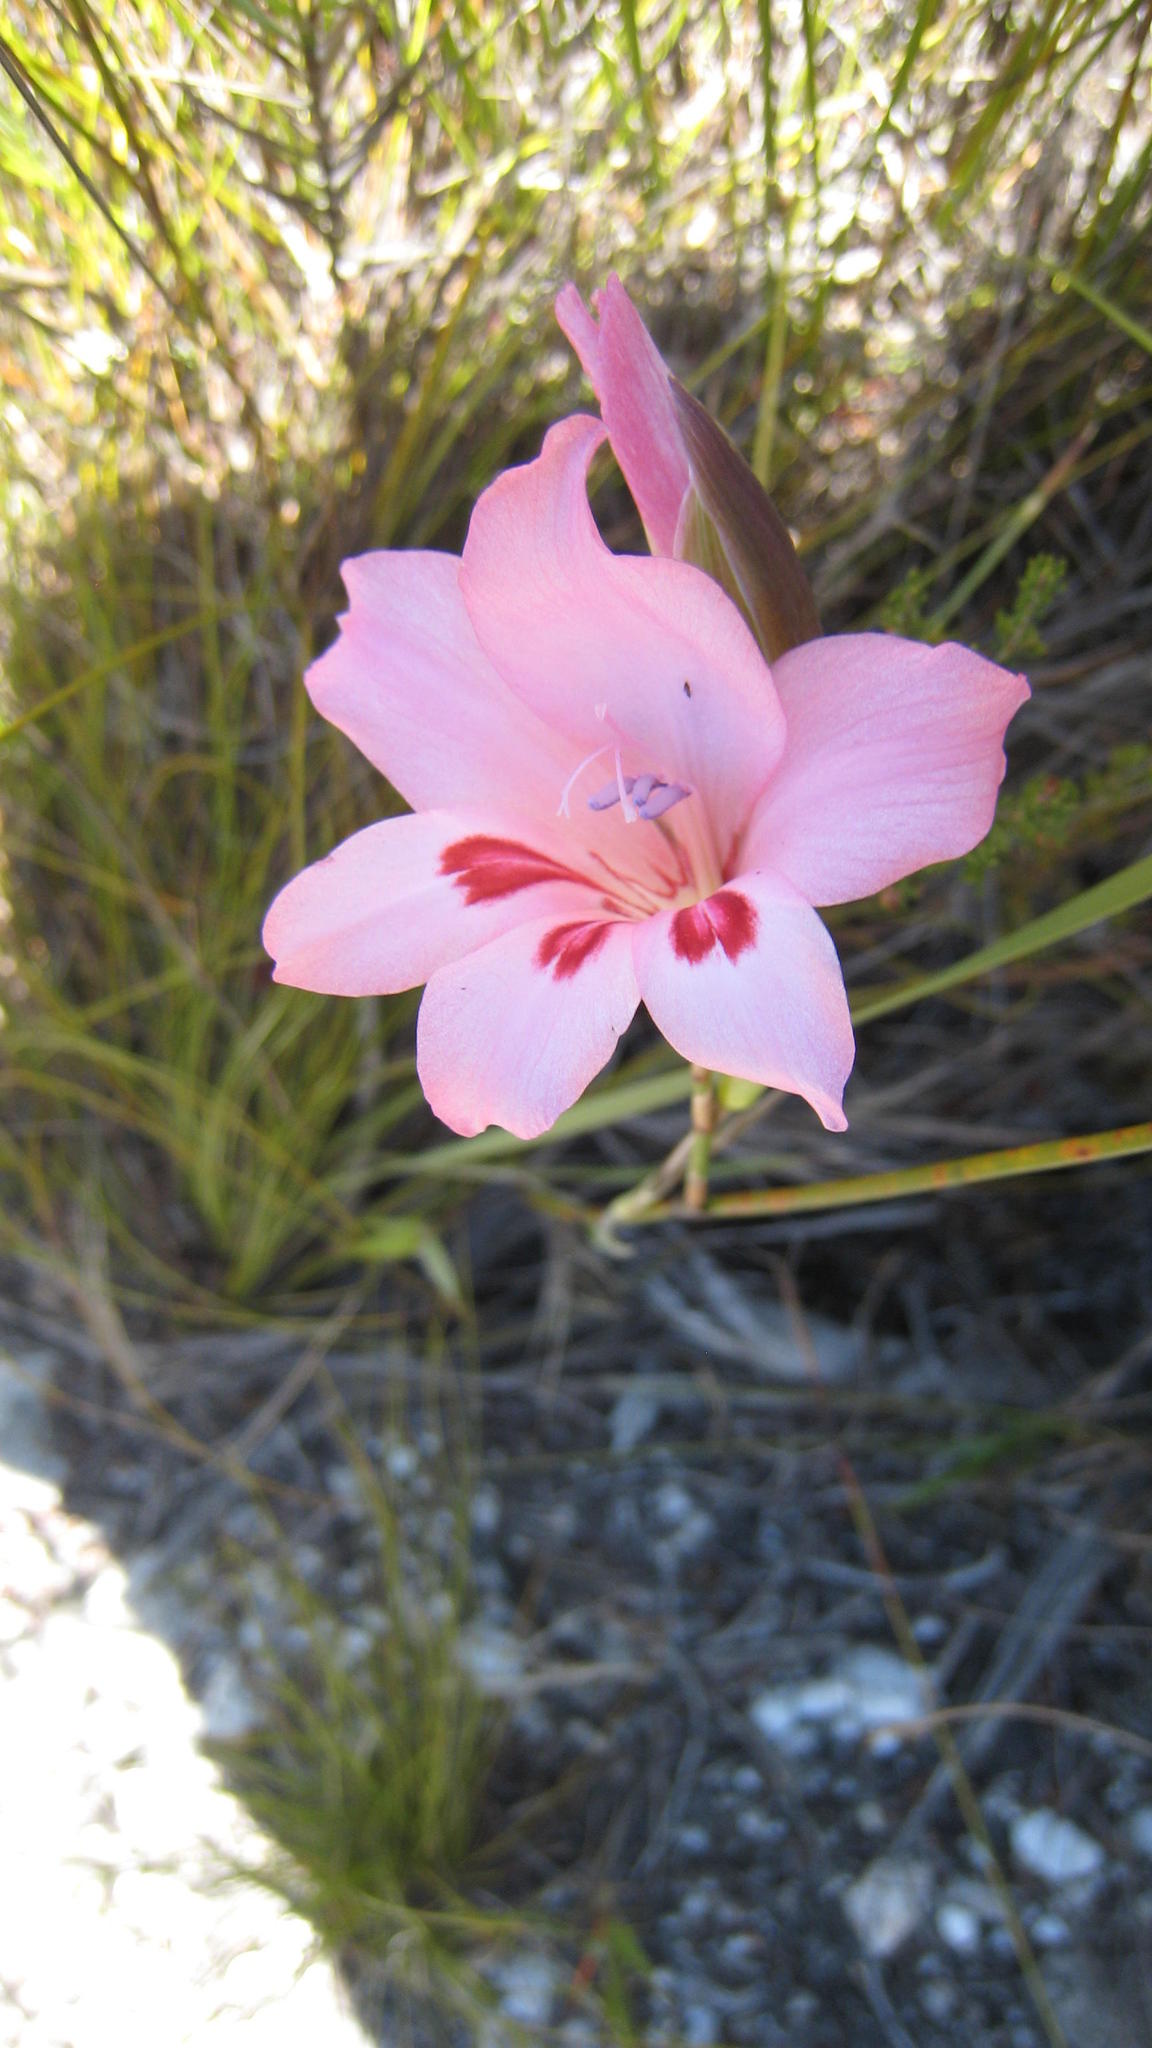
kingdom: Plantae
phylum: Tracheophyta
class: Liliopsida
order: Asparagales
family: Iridaceae
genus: Gladiolus
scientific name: Gladiolus carneus
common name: Painted-lady
